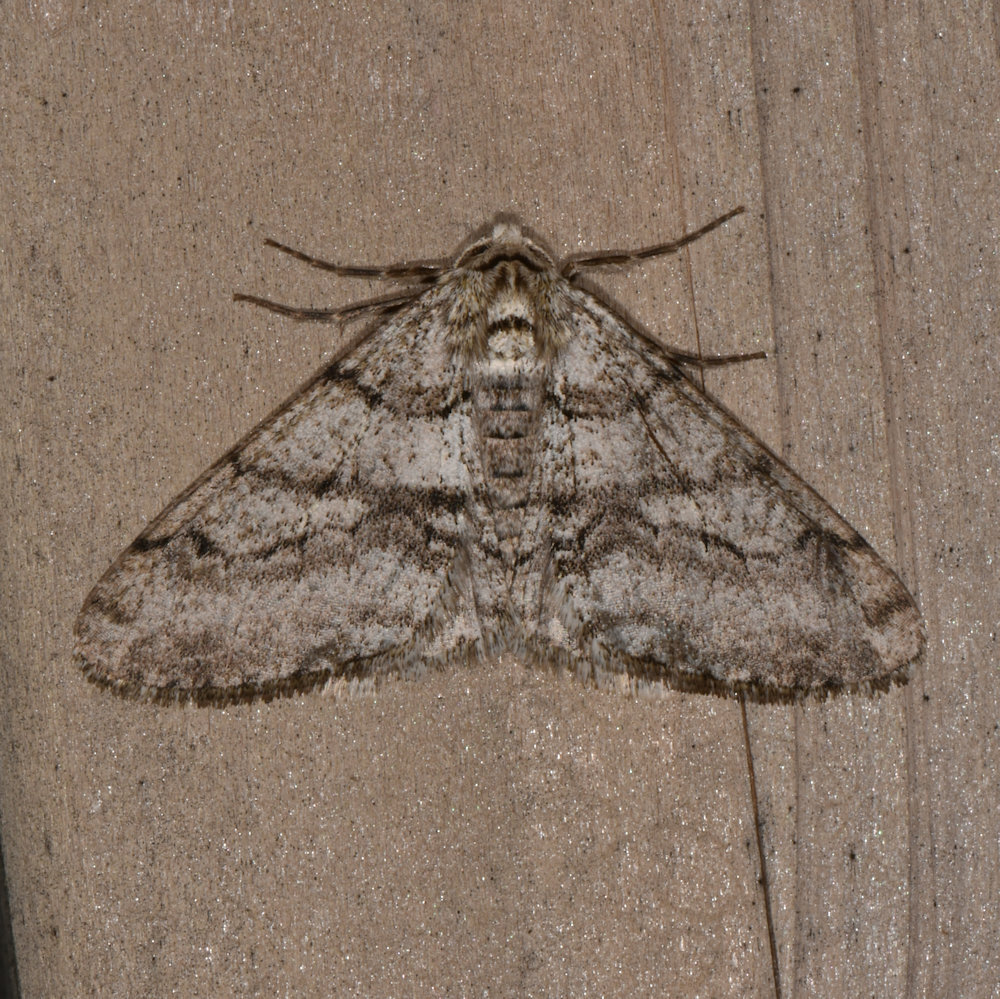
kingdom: Animalia
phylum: Arthropoda
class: Insecta
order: Lepidoptera
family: Geometridae
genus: Phigalia
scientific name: Phigalia titea
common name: Spiny looper
